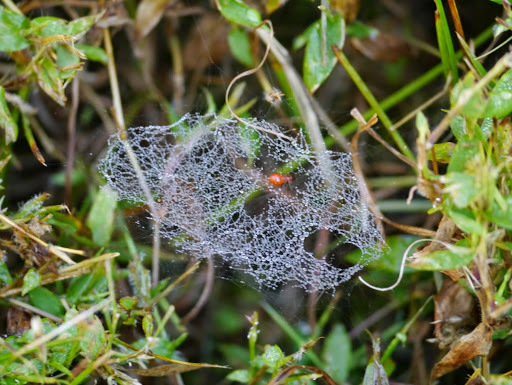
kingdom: Animalia
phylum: Arthropoda
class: Arachnida
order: Araneae
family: Linyphiidae
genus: Florinda
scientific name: Florinda coccinea
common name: Black-tailed red sheetweaver
